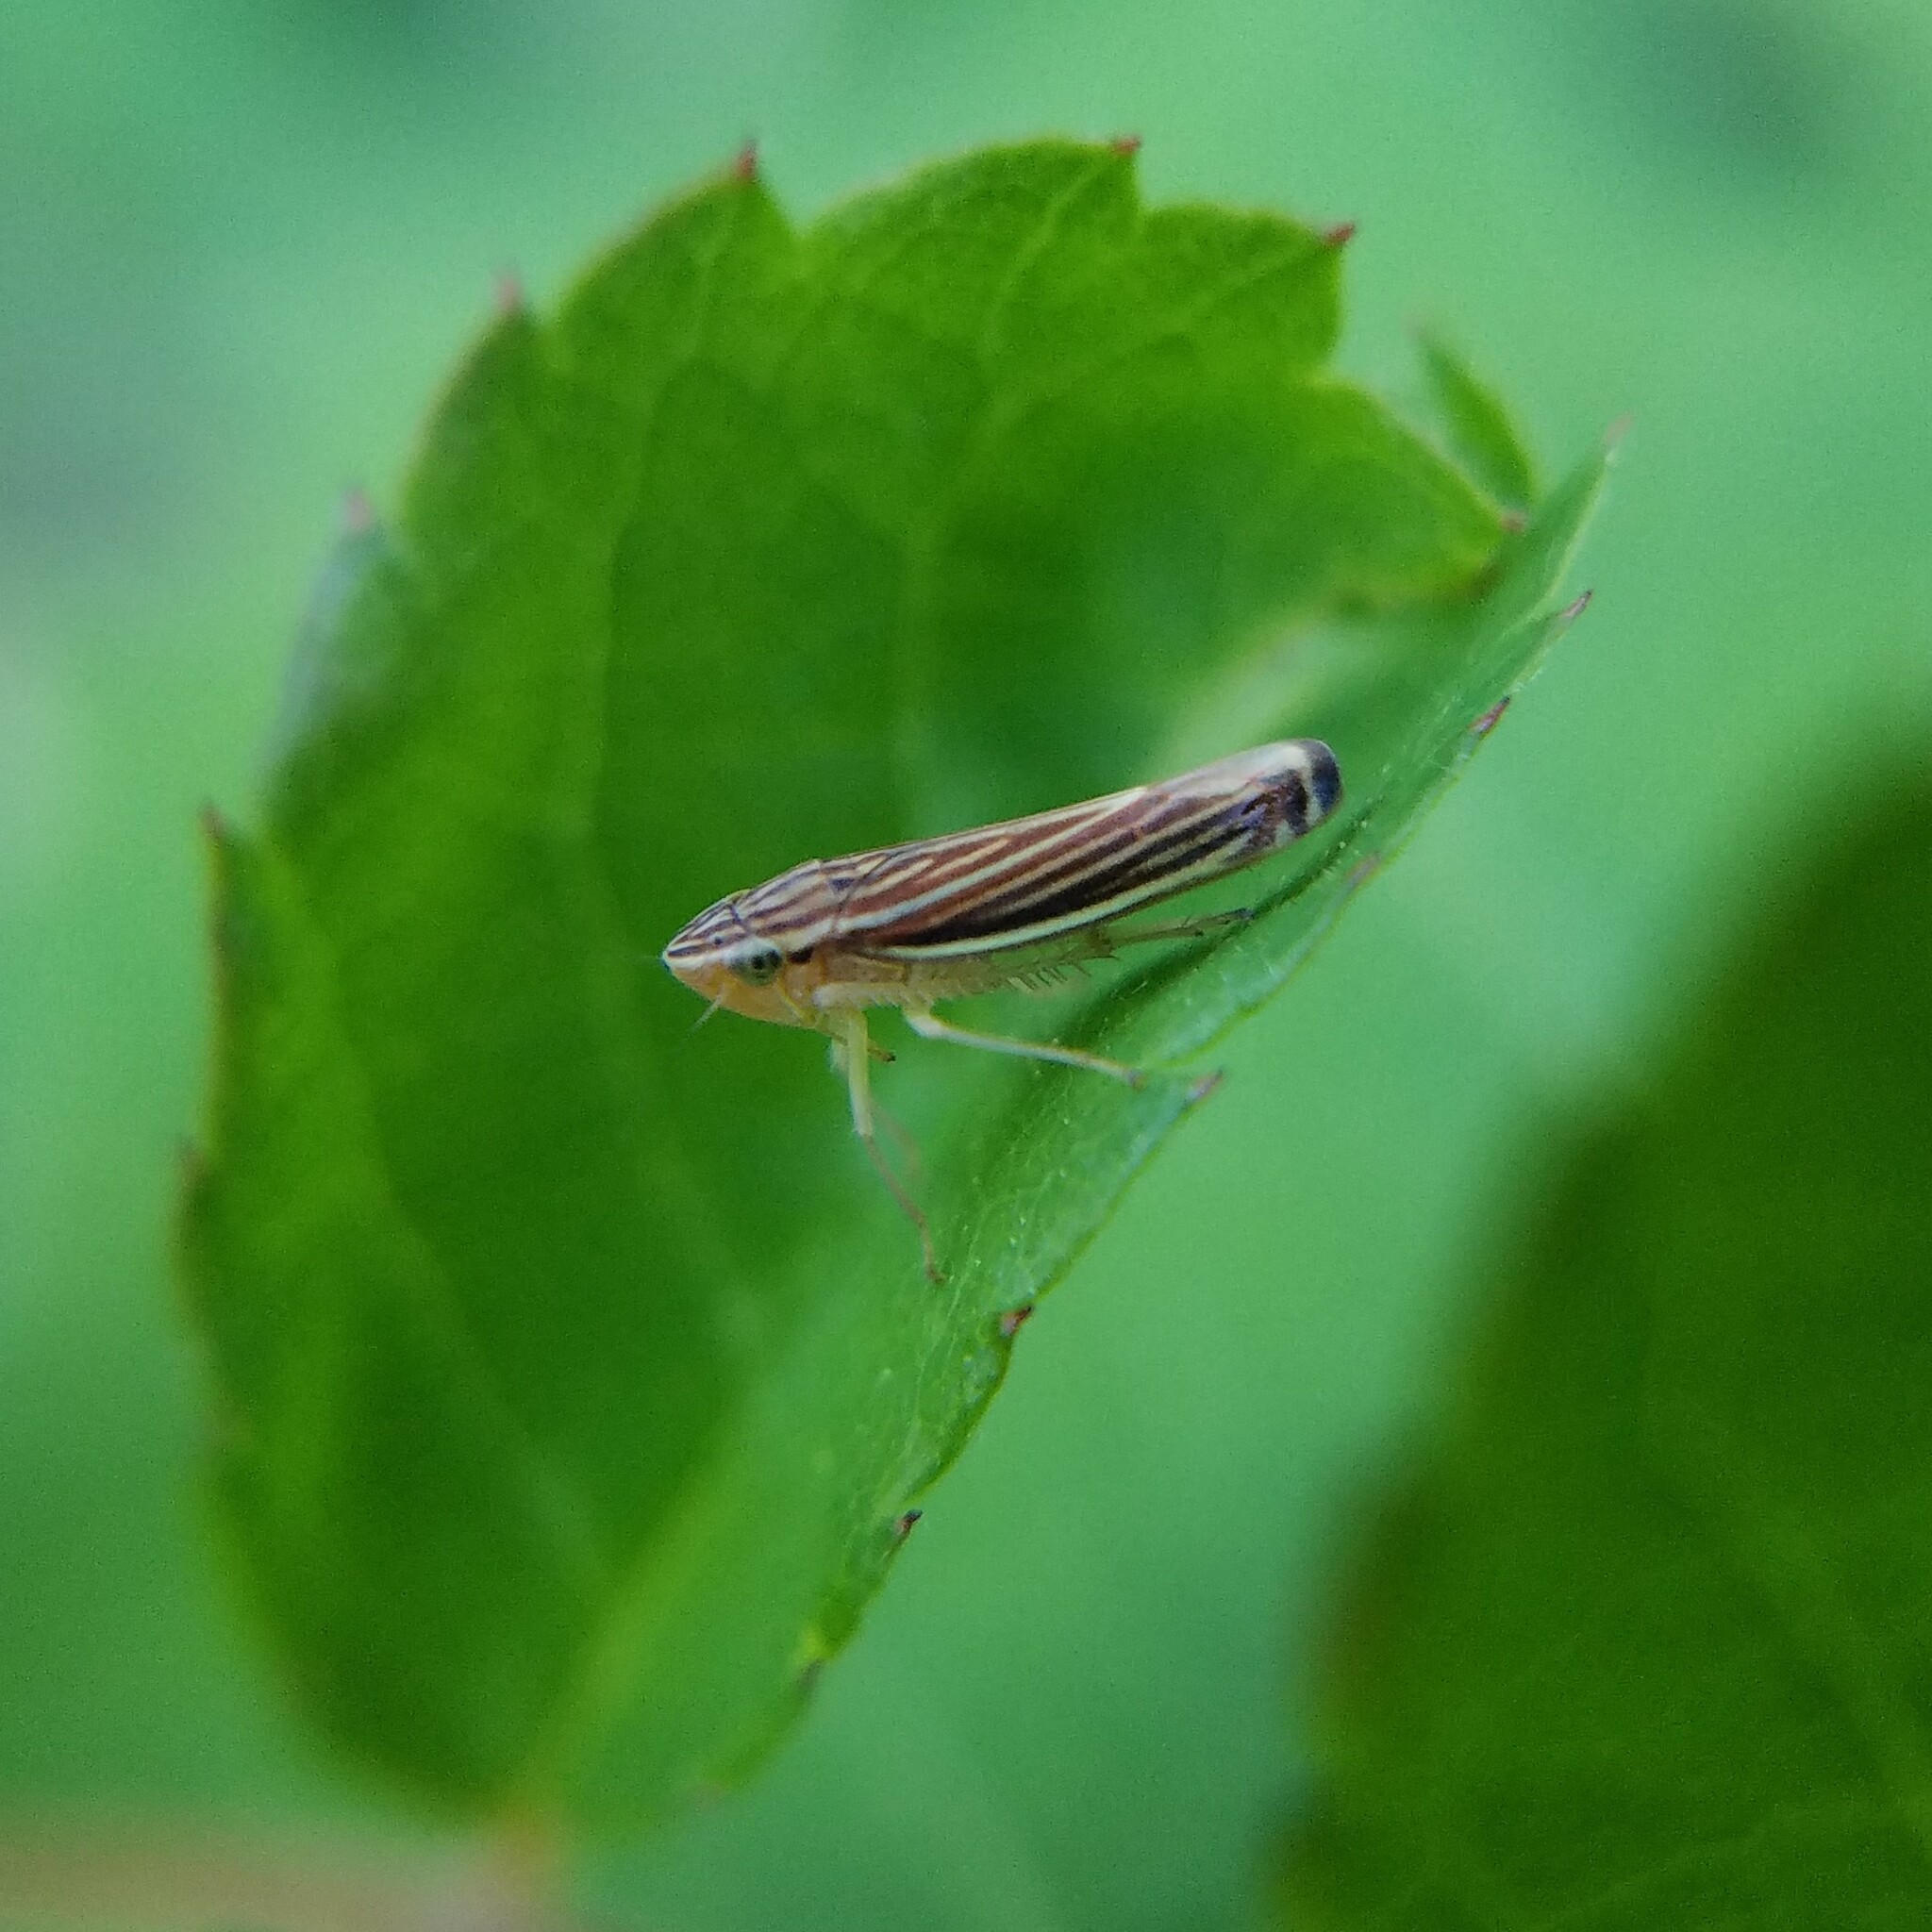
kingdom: Animalia
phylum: Arthropoda
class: Insecta
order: Hemiptera
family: Cicadellidae
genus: Sibovia
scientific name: Sibovia occatoria
